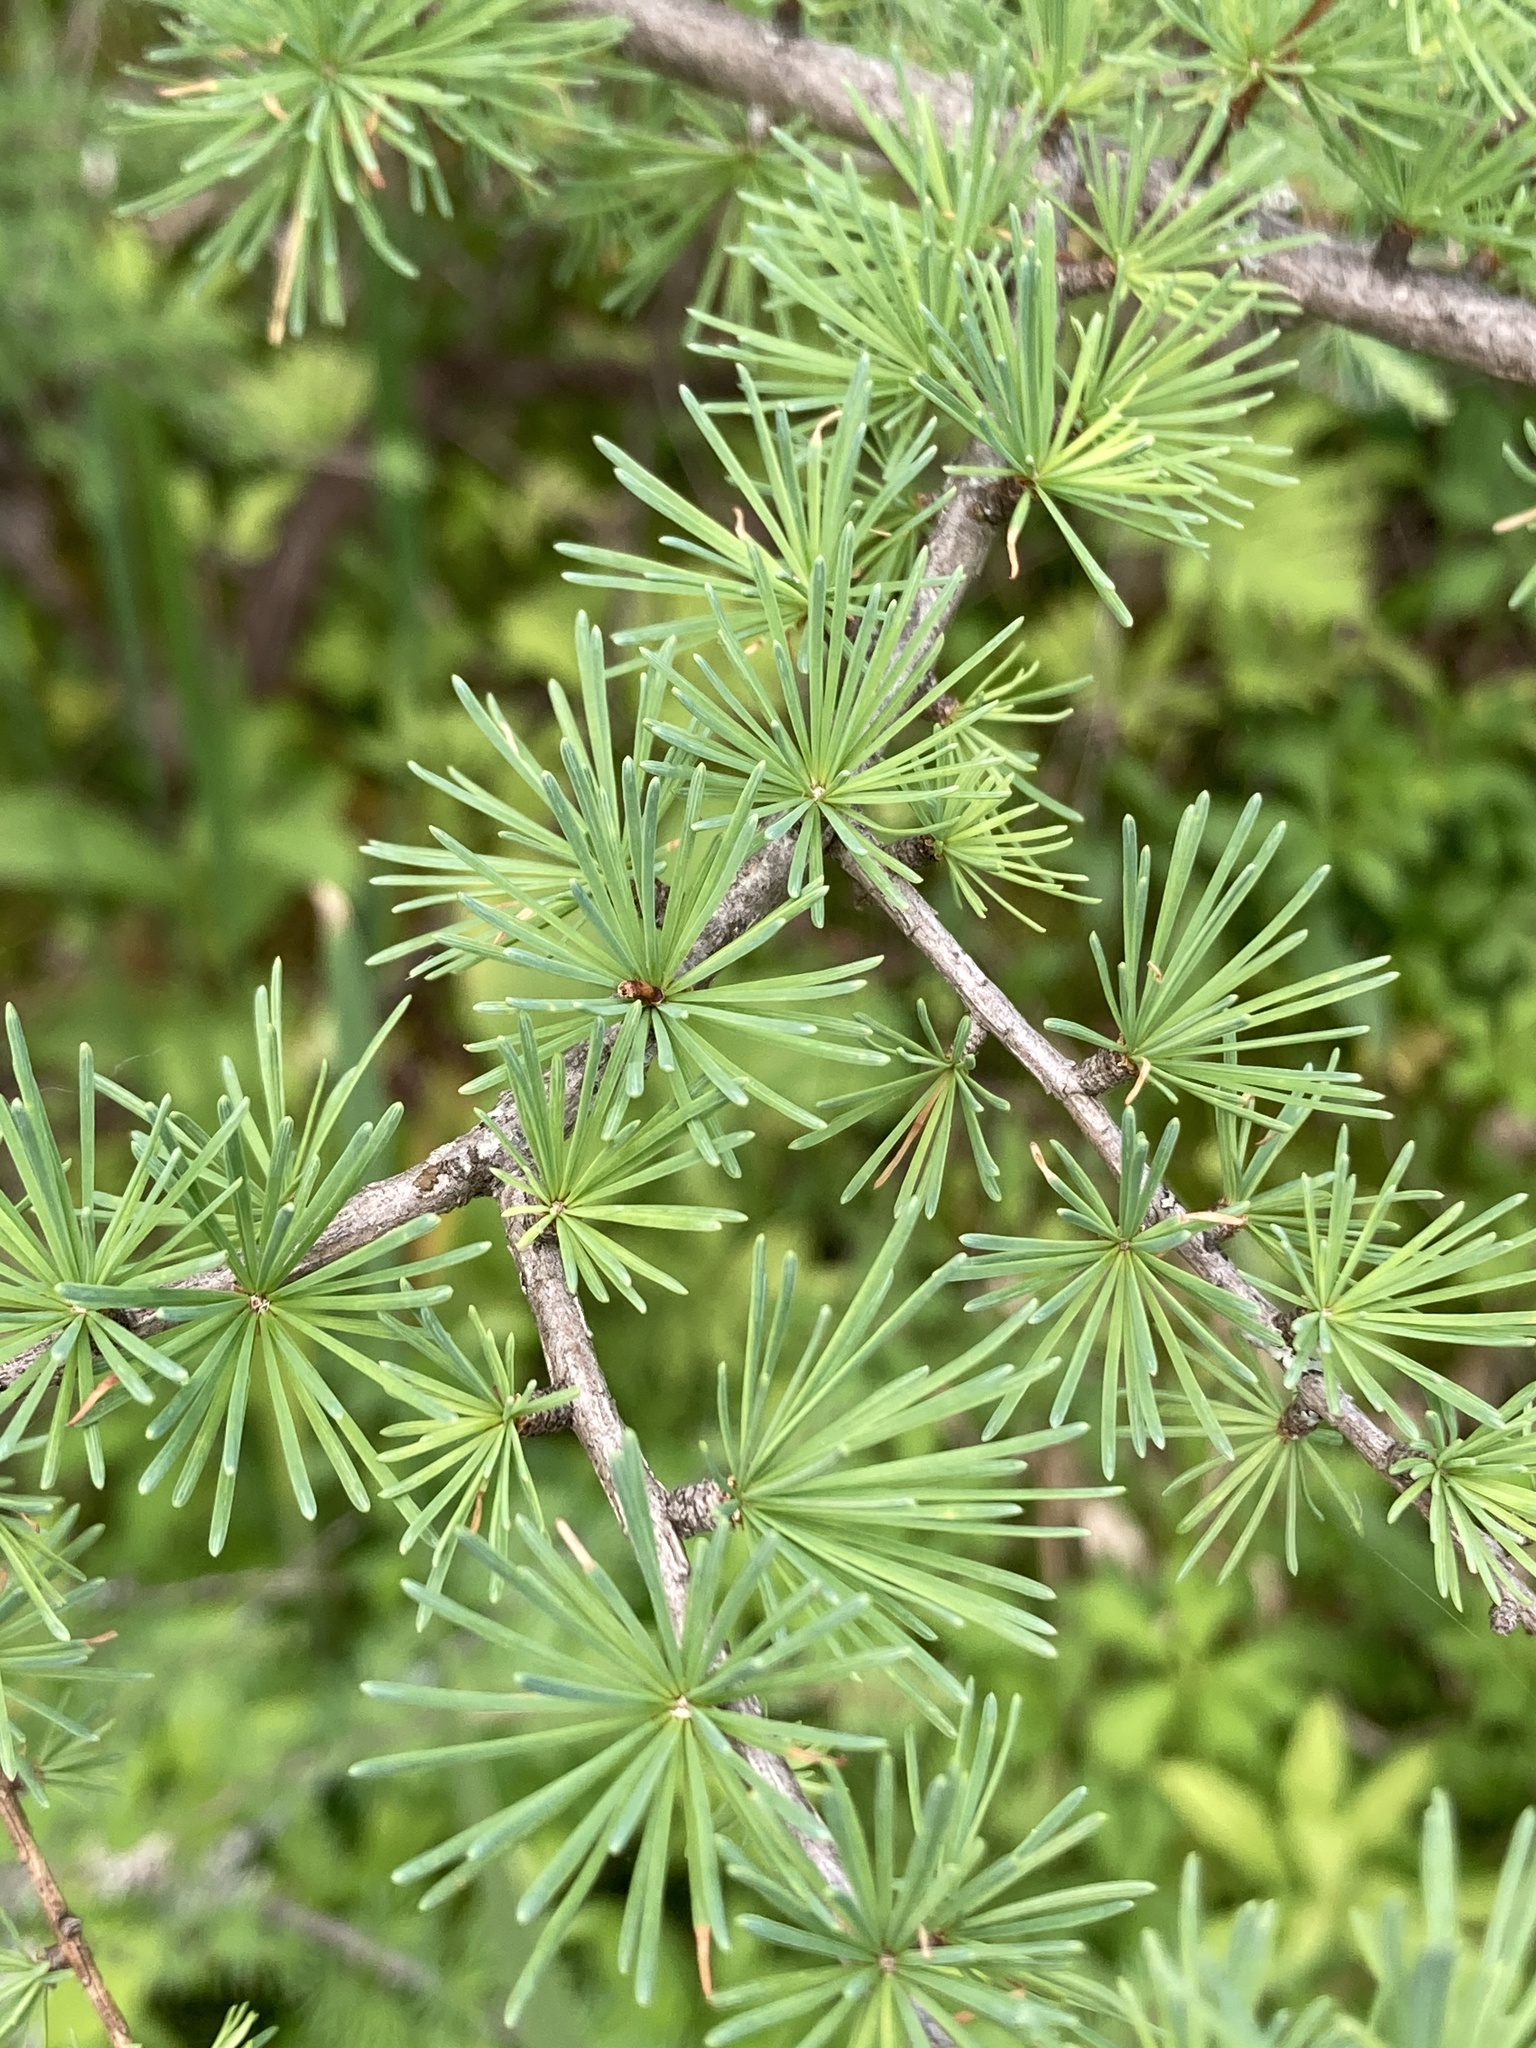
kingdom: Plantae
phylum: Tracheophyta
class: Pinopsida
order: Pinales
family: Pinaceae
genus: Larix
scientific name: Larix laricina
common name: American larch
